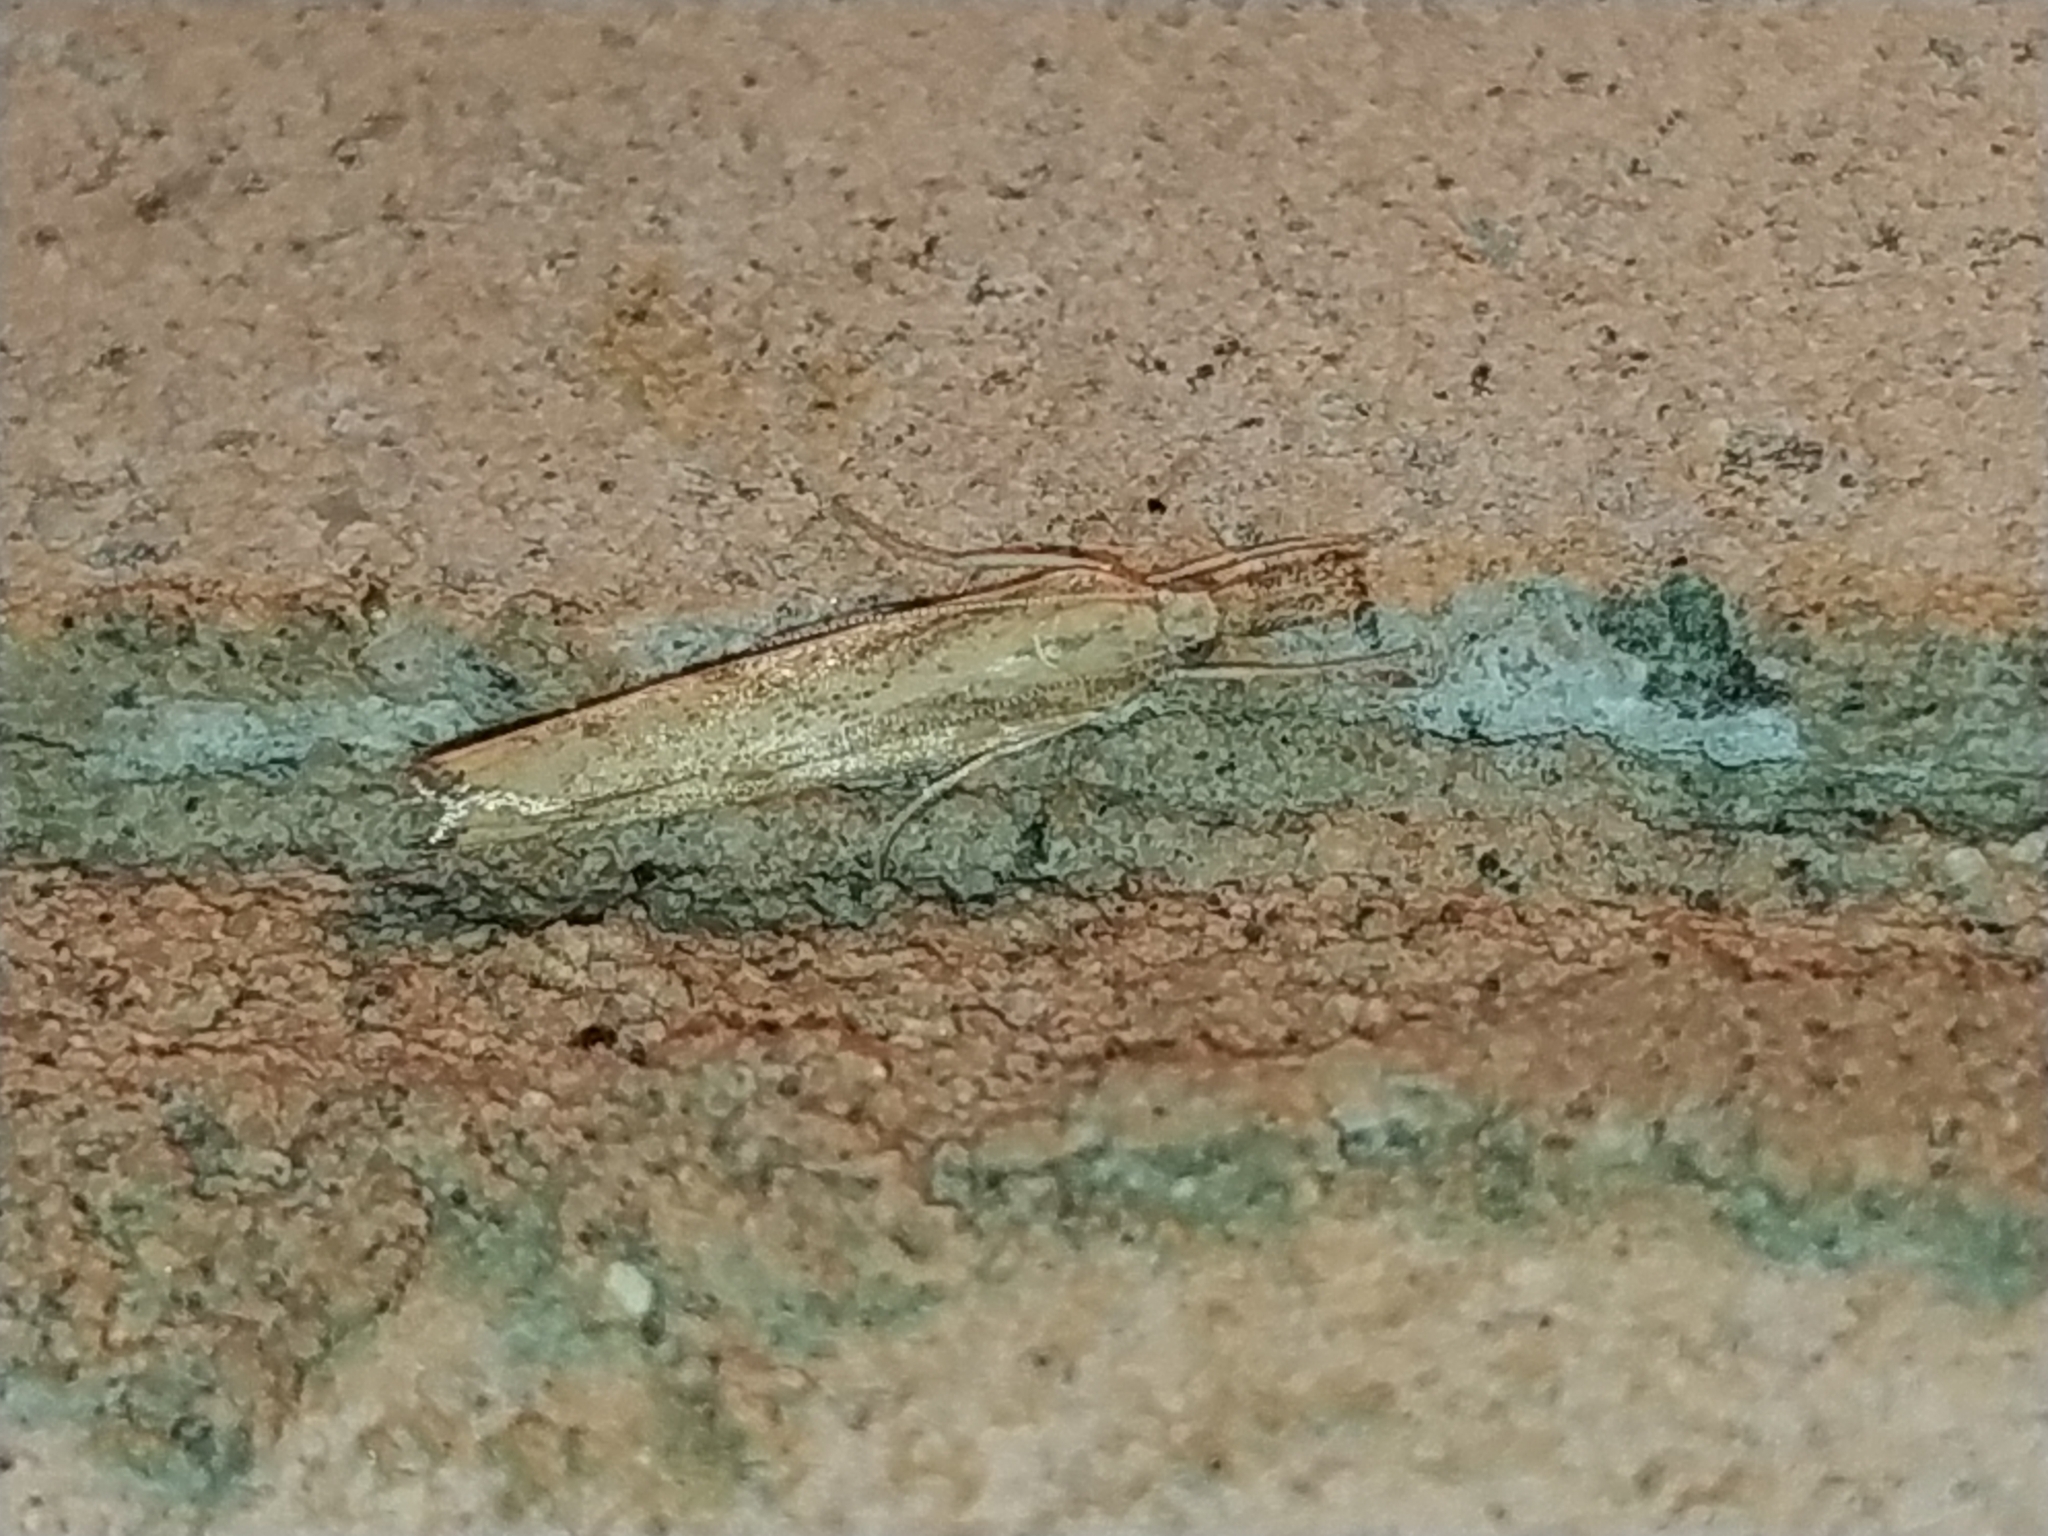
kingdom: Animalia
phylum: Arthropoda
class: Insecta
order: Lepidoptera
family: Crambidae
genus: Agriphila
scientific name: Agriphila inquinatella
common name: Barred grass-veneer
